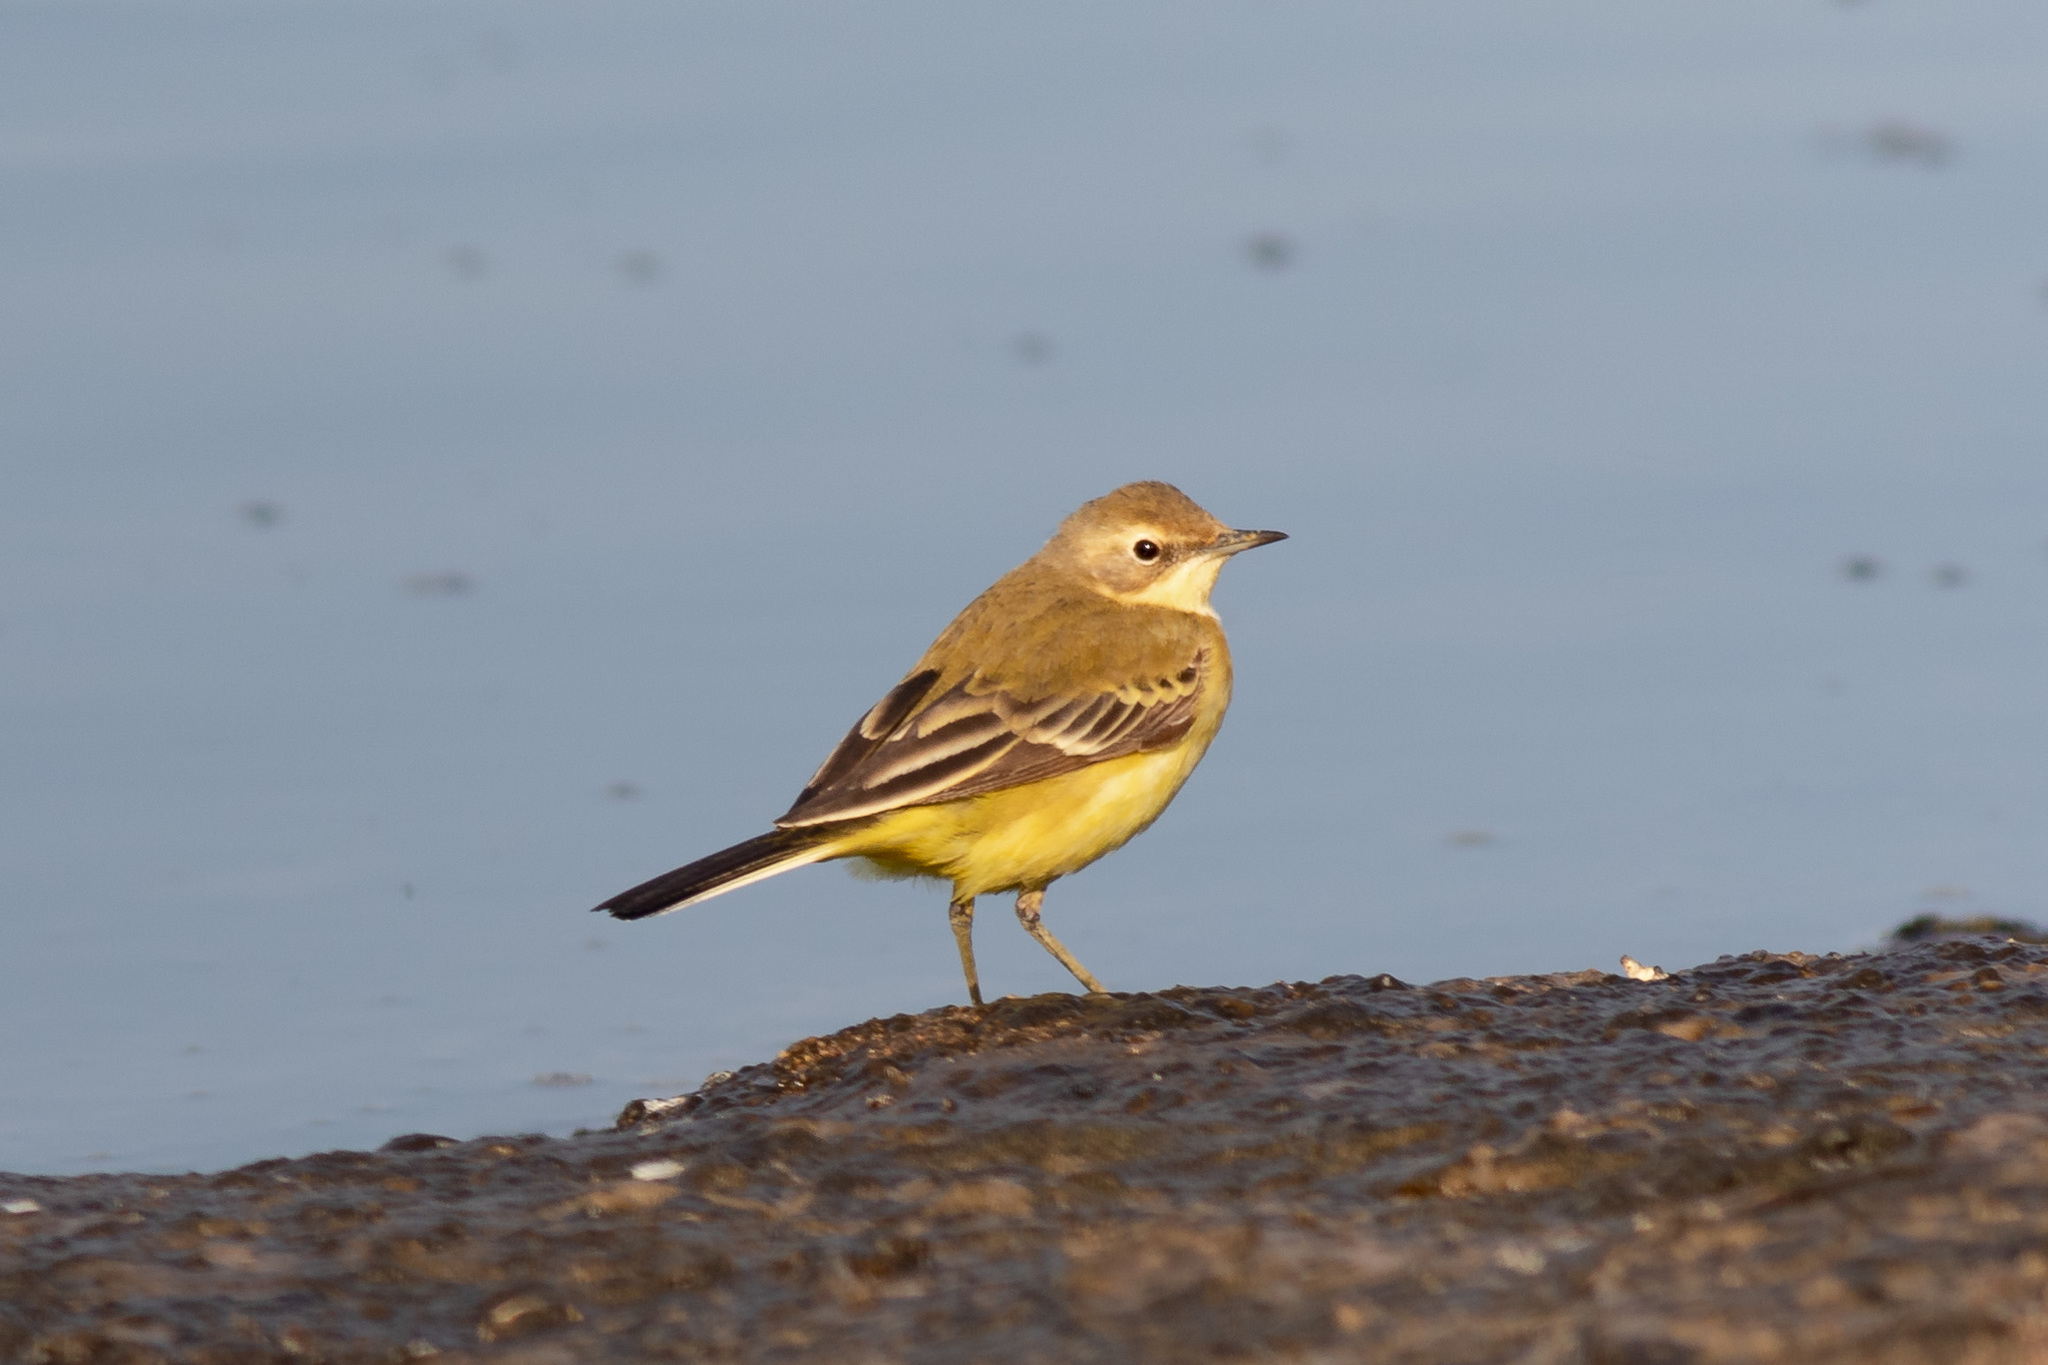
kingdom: Animalia
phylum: Chordata
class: Aves
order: Passeriformes
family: Motacillidae
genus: Motacilla
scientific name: Motacilla flava
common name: Western yellow wagtail
